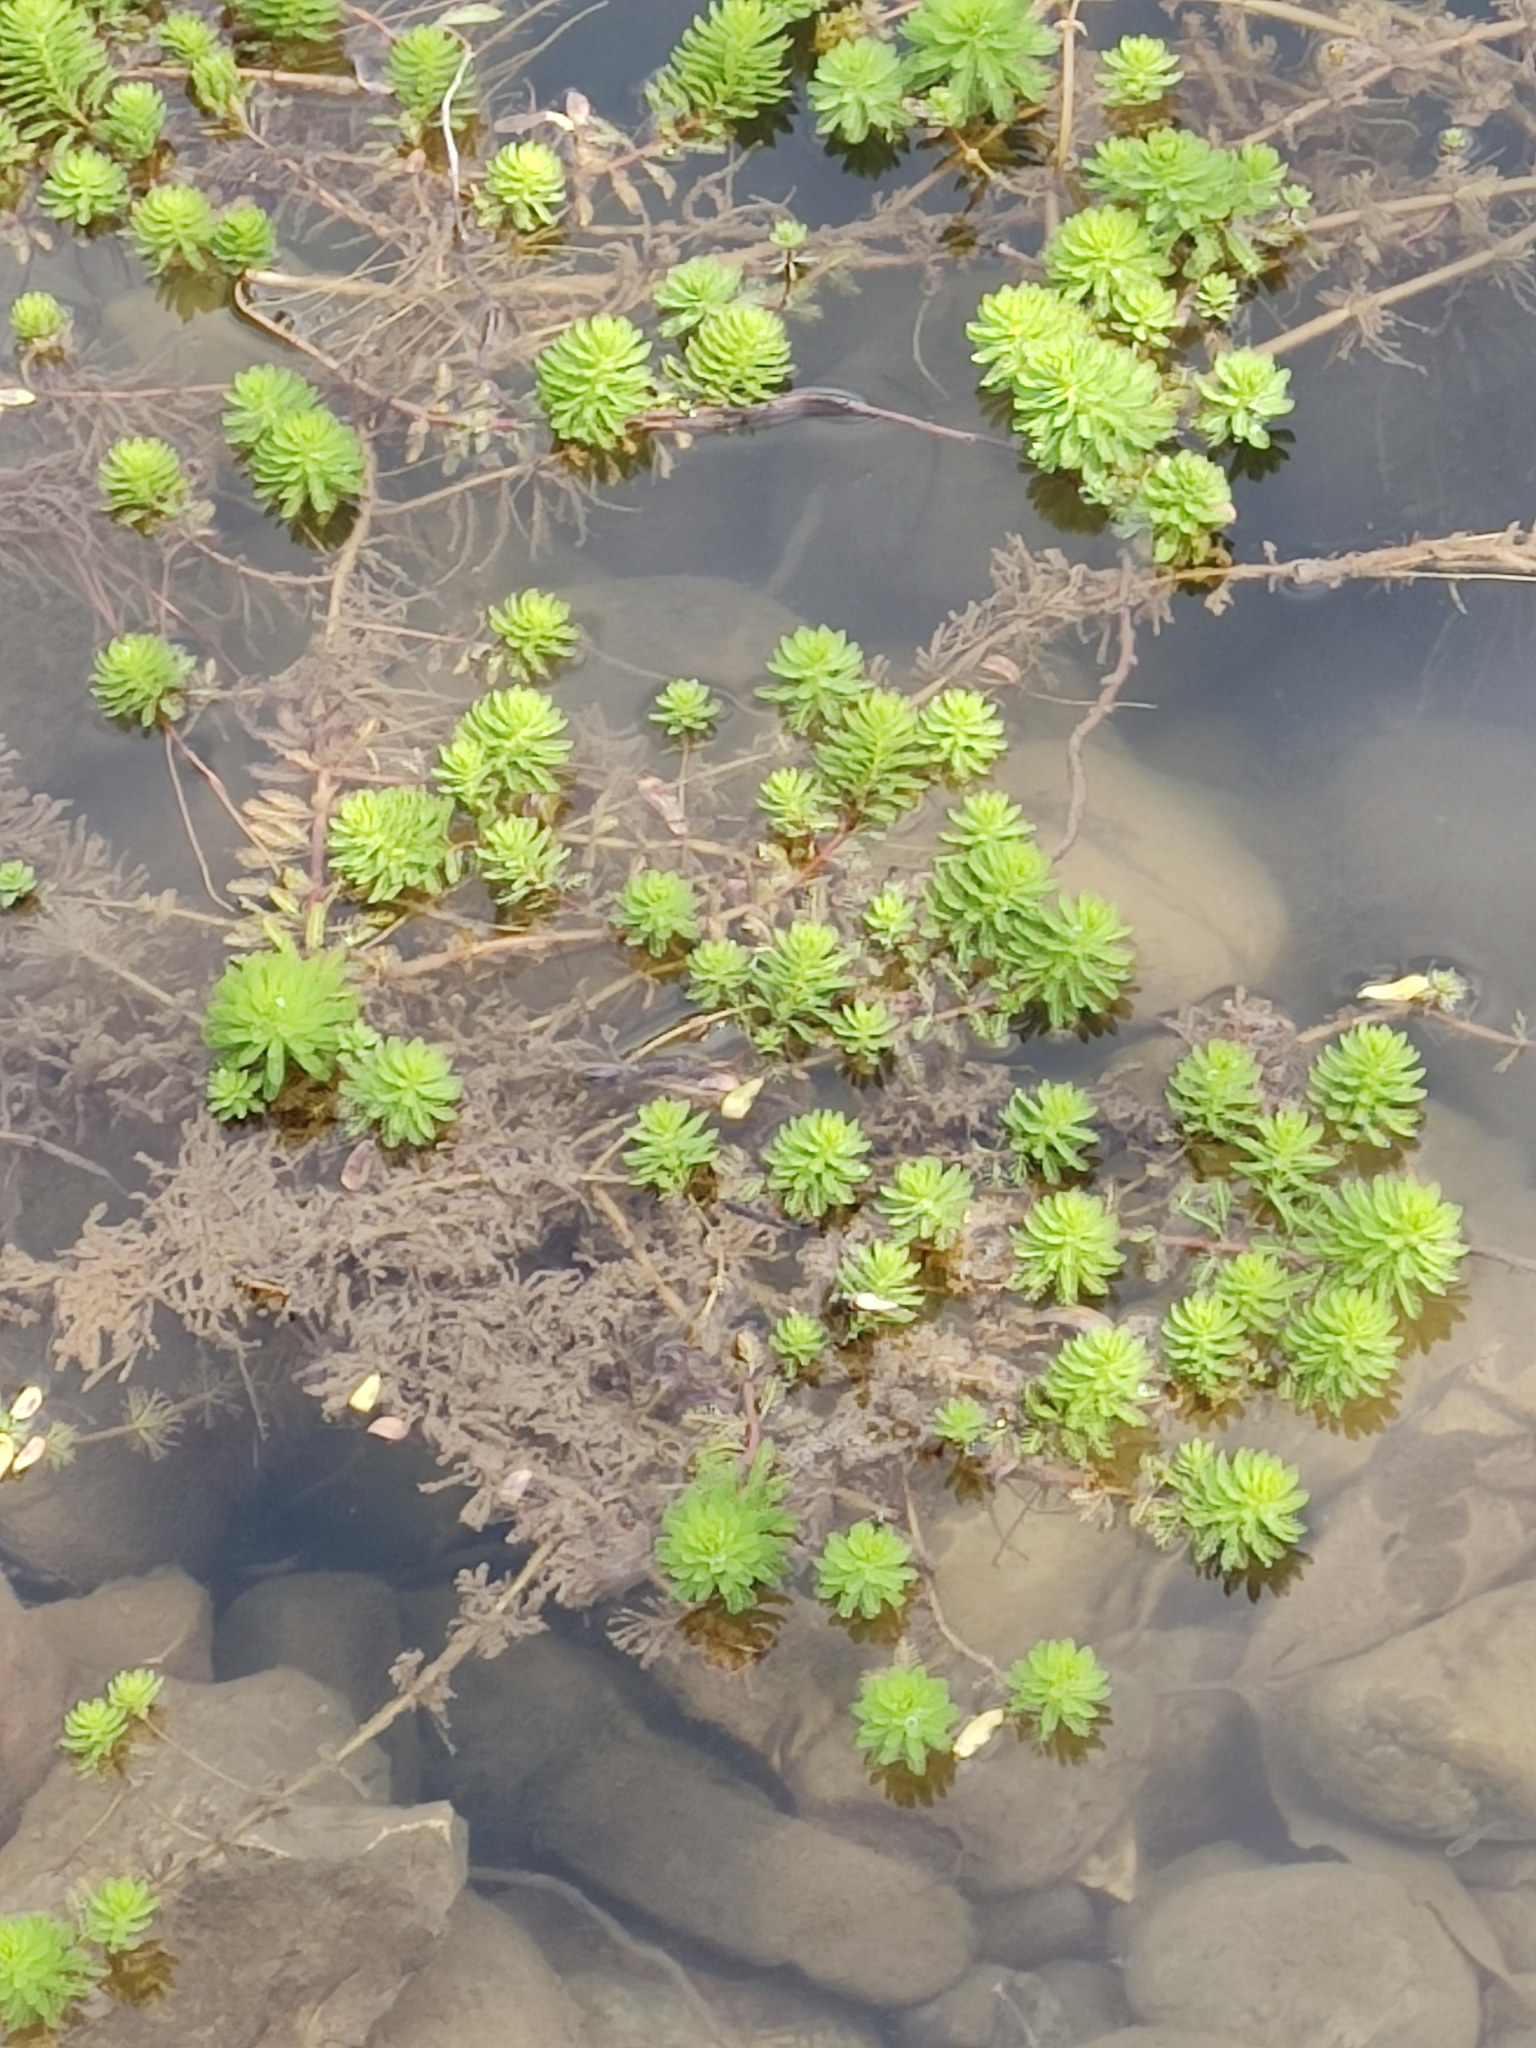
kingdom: Plantae
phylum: Tracheophyta
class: Magnoliopsida
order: Saxifragales
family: Haloragaceae
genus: Myriophyllum
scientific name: Myriophyllum aquaticum
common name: Parrot's feather
